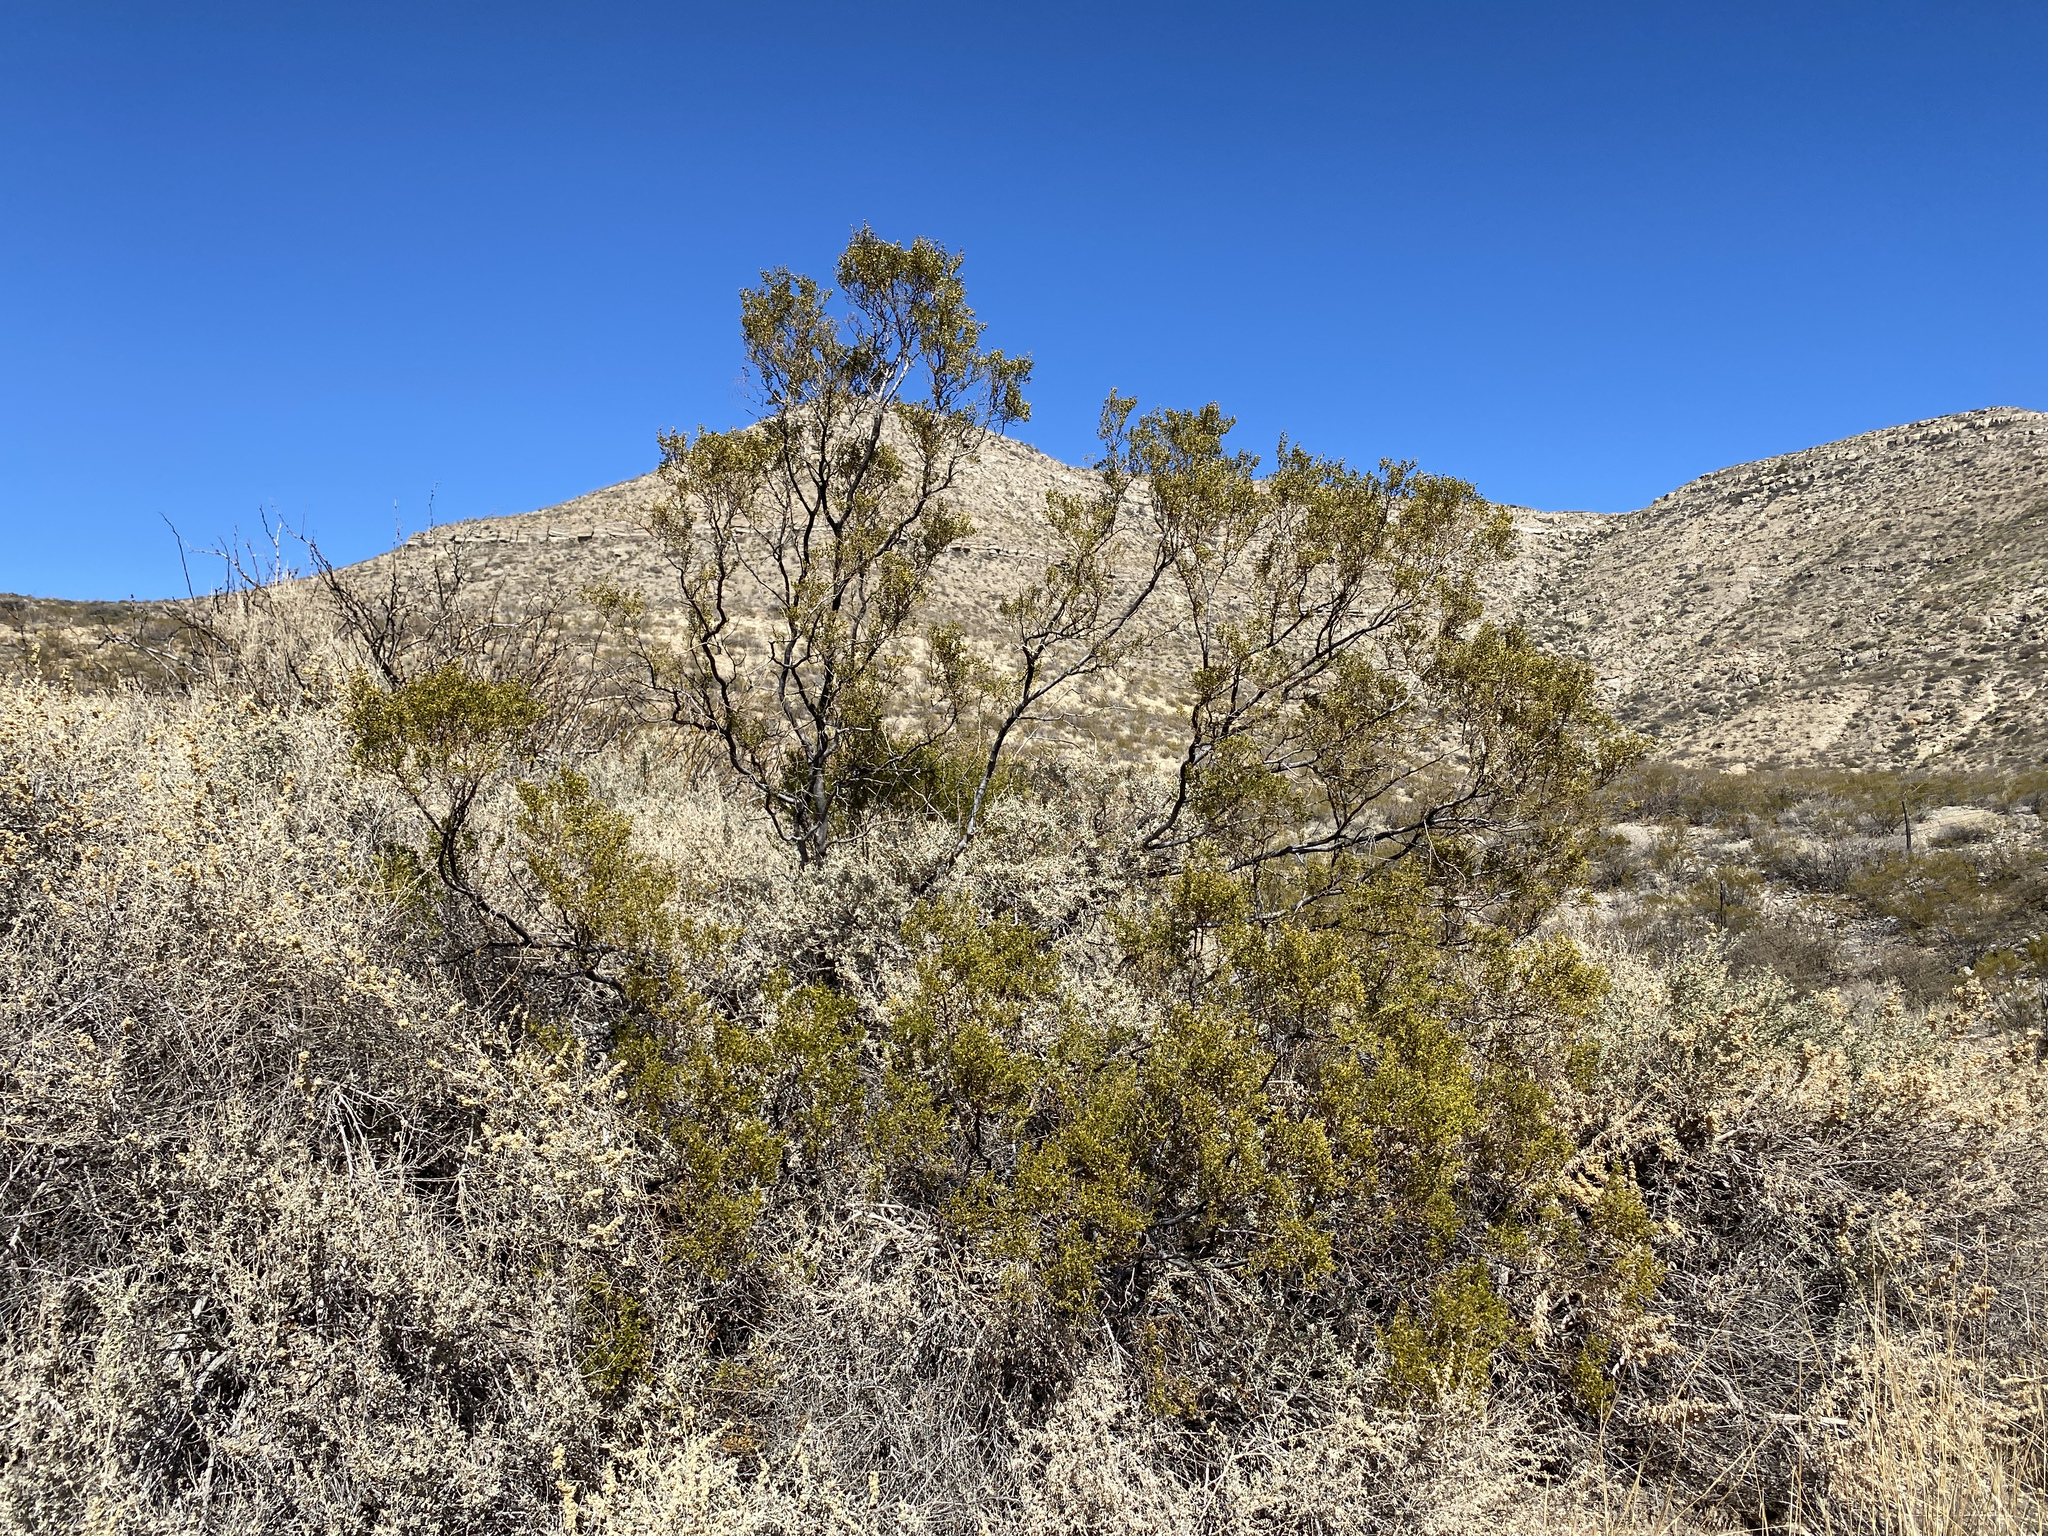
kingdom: Plantae
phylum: Tracheophyta
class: Magnoliopsida
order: Zygophyllales
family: Zygophyllaceae
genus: Larrea
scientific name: Larrea tridentata
